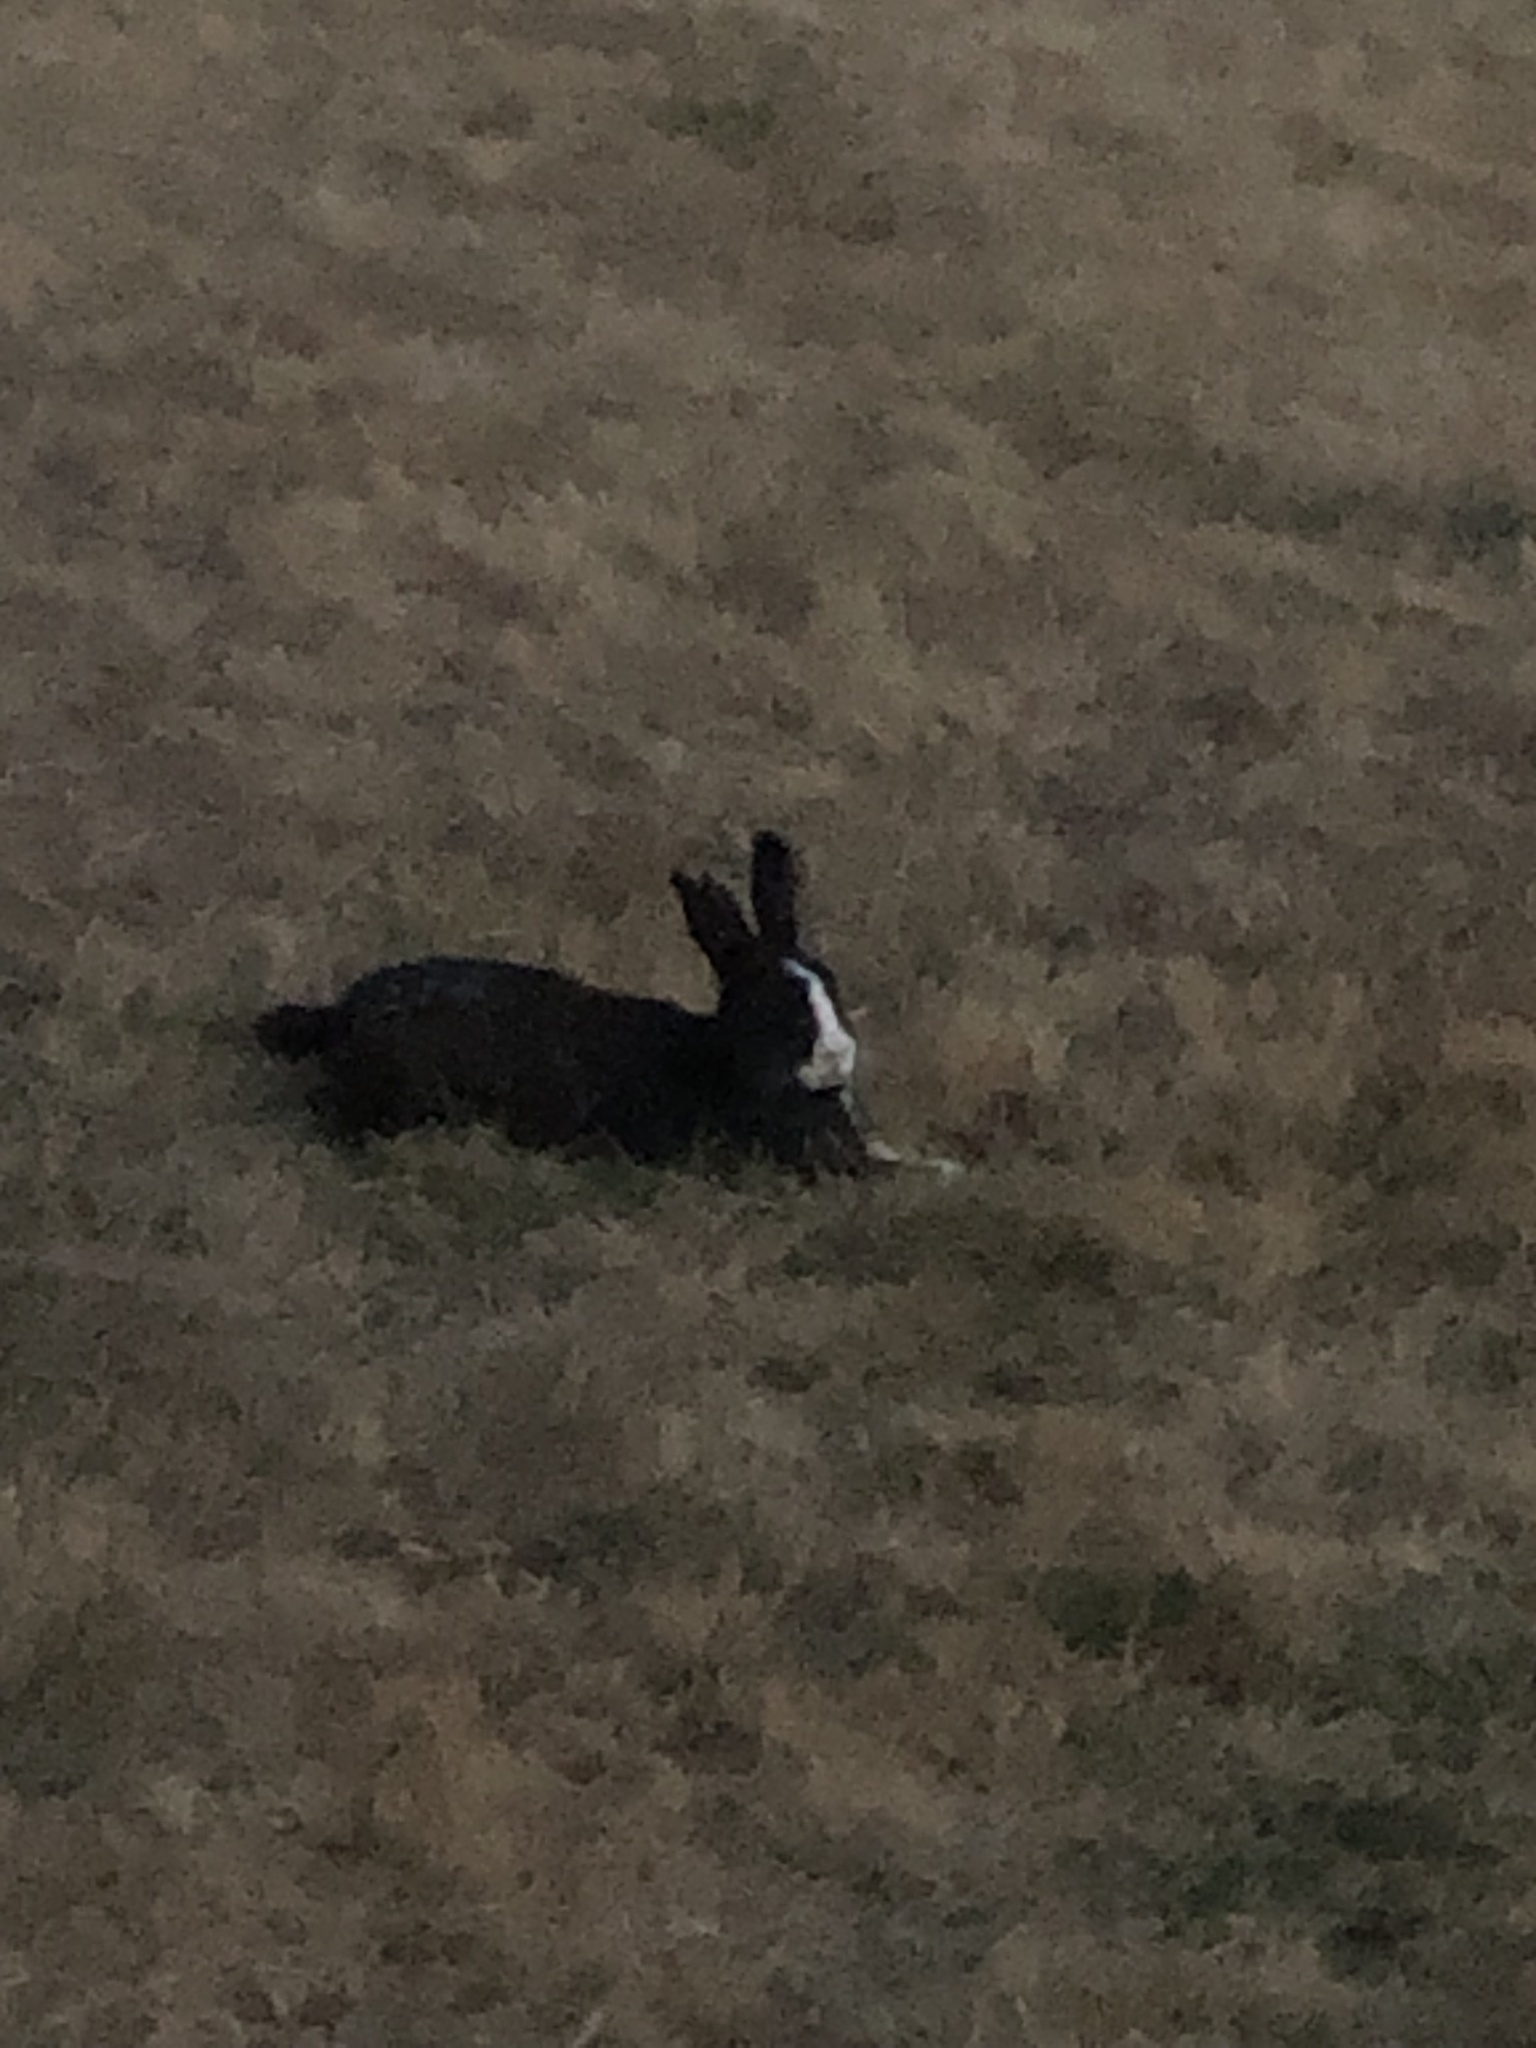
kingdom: Animalia
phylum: Chordata
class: Mammalia
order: Lagomorpha
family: Leporidae
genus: Oryctolagus
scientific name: Oryctolagus cuniculus
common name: European rabbit
